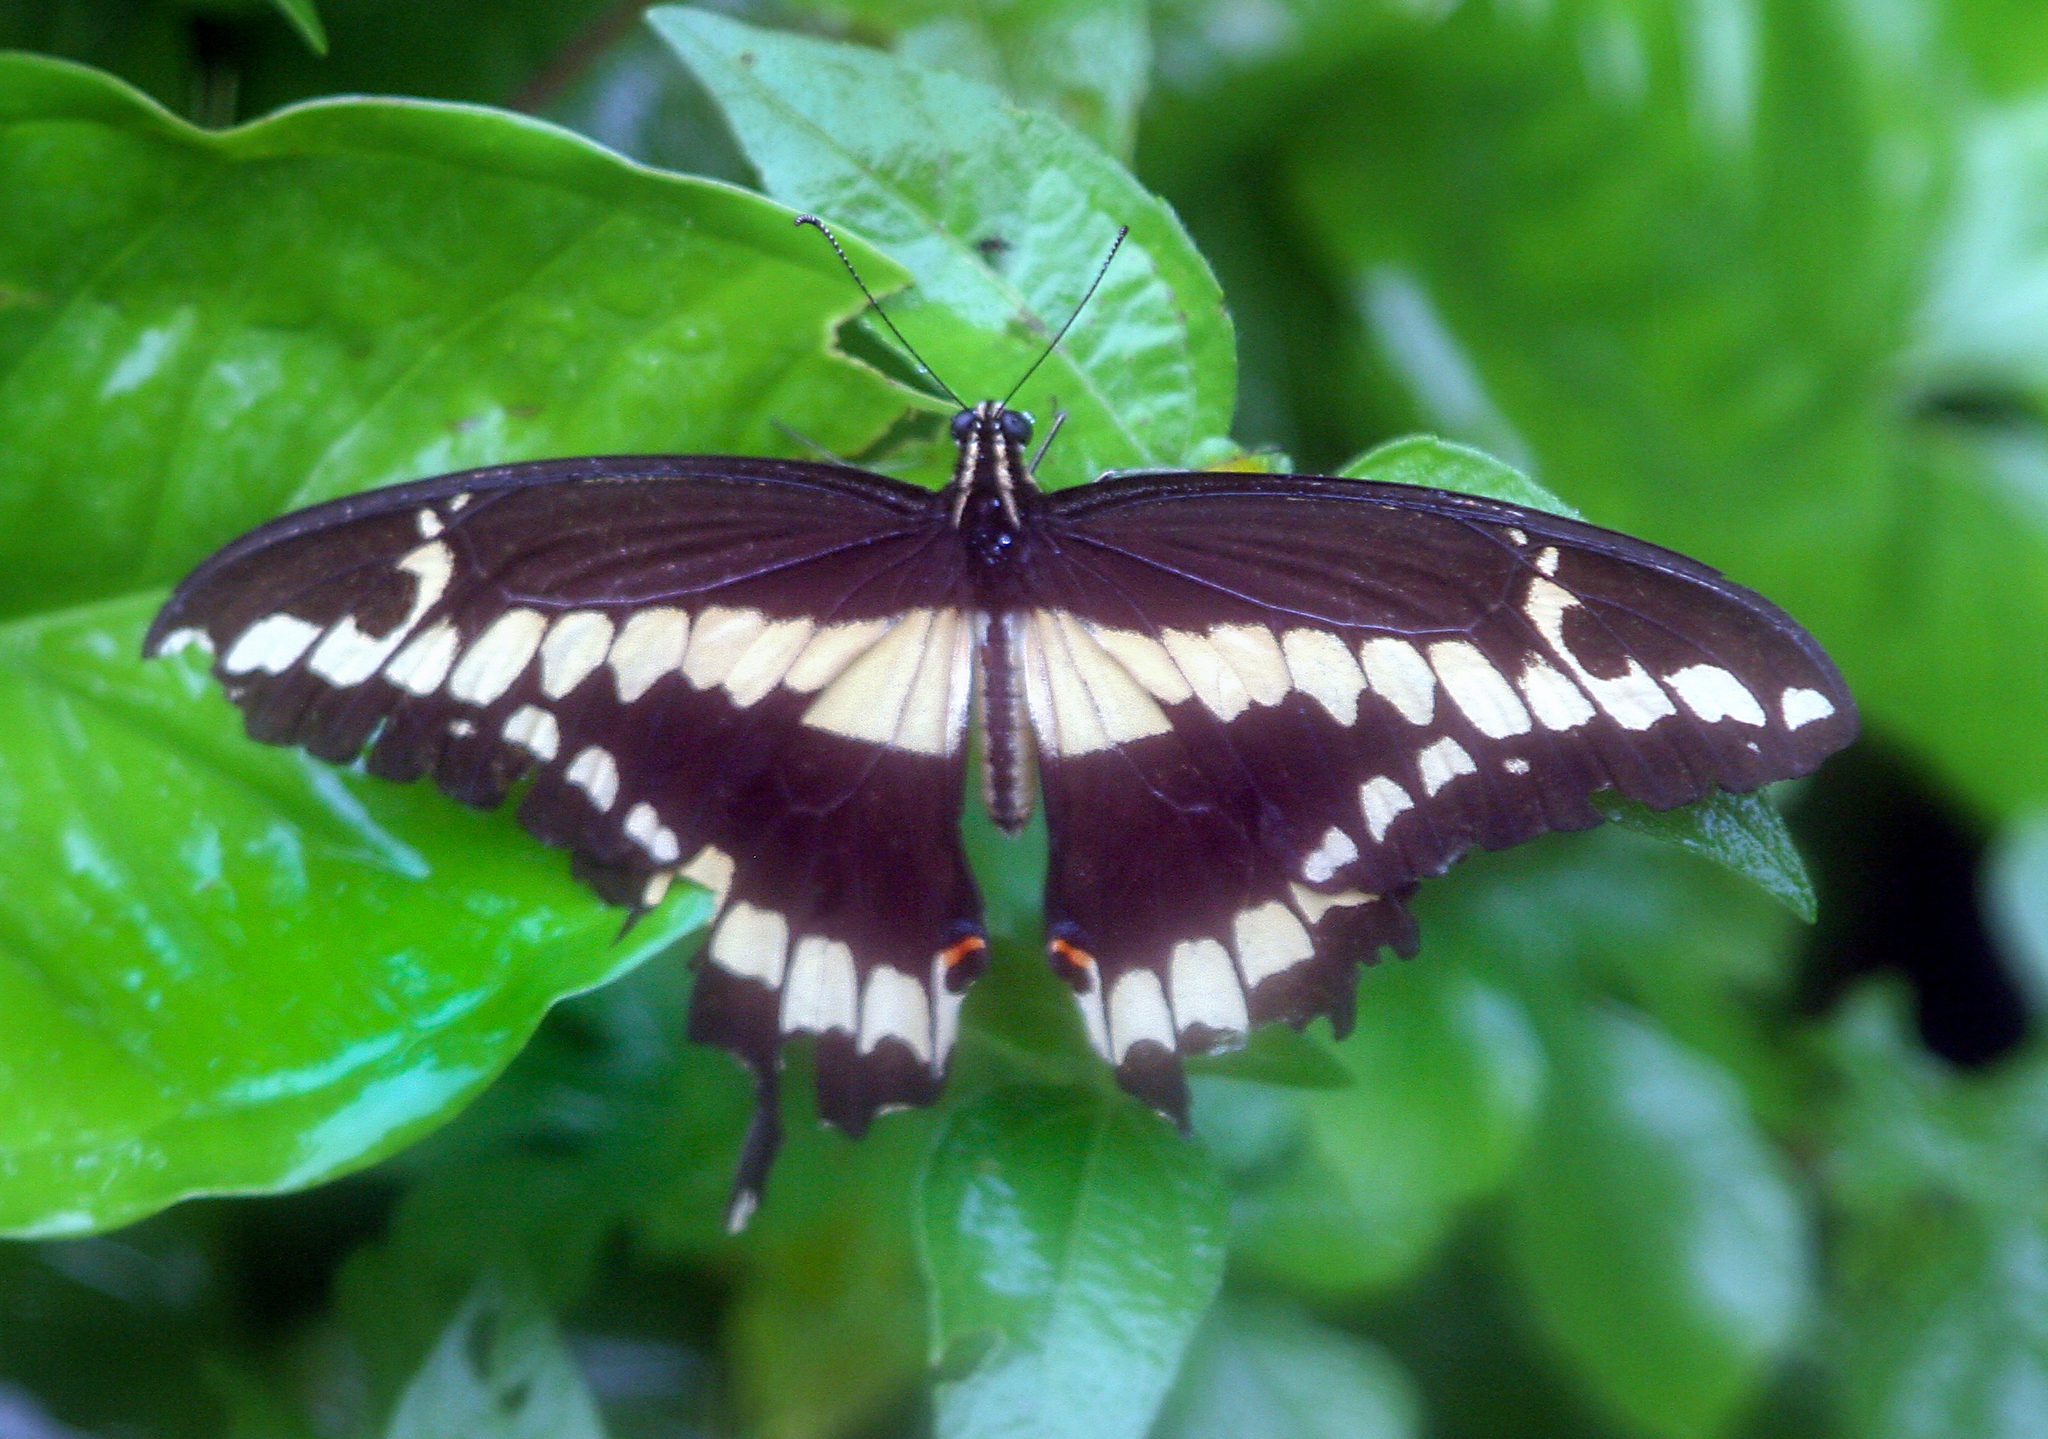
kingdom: Animalia
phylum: Arthropoda
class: Insecta
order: Lepidoptera
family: Papilionidae
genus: Papilio
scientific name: Papilio rumiko
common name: Western giant swallowtail
